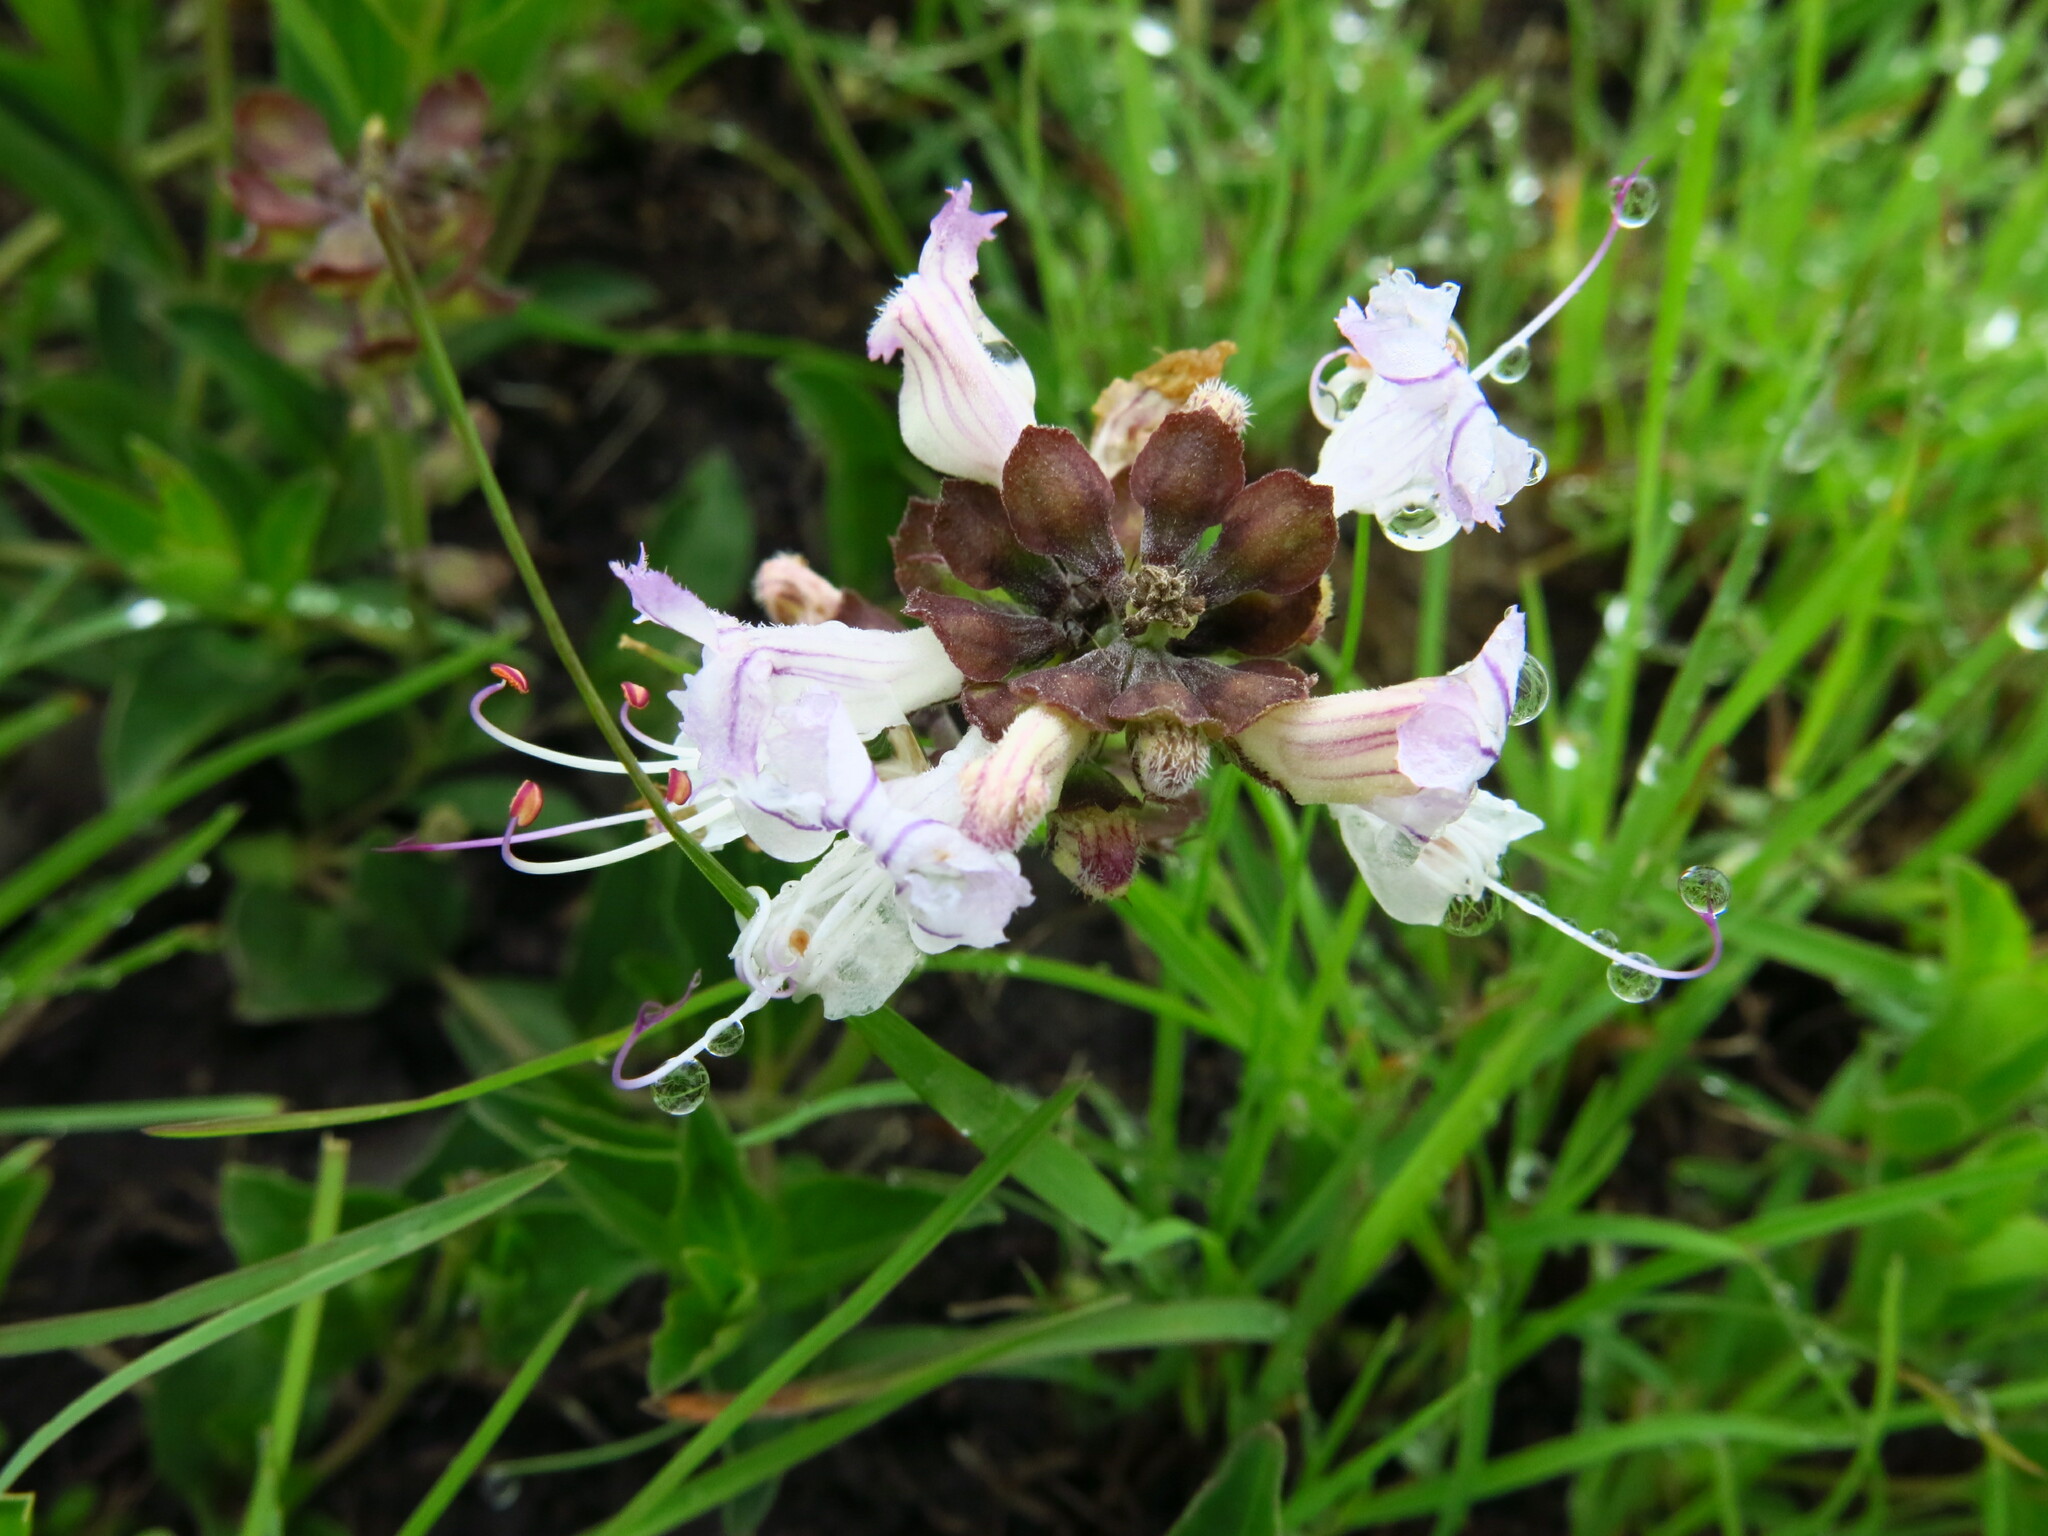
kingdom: Plantae
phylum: Tracheophyta
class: Magnoliopsida
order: Lamiales
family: Lamiaceae
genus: Ocimum
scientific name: Ocimum obovatum
